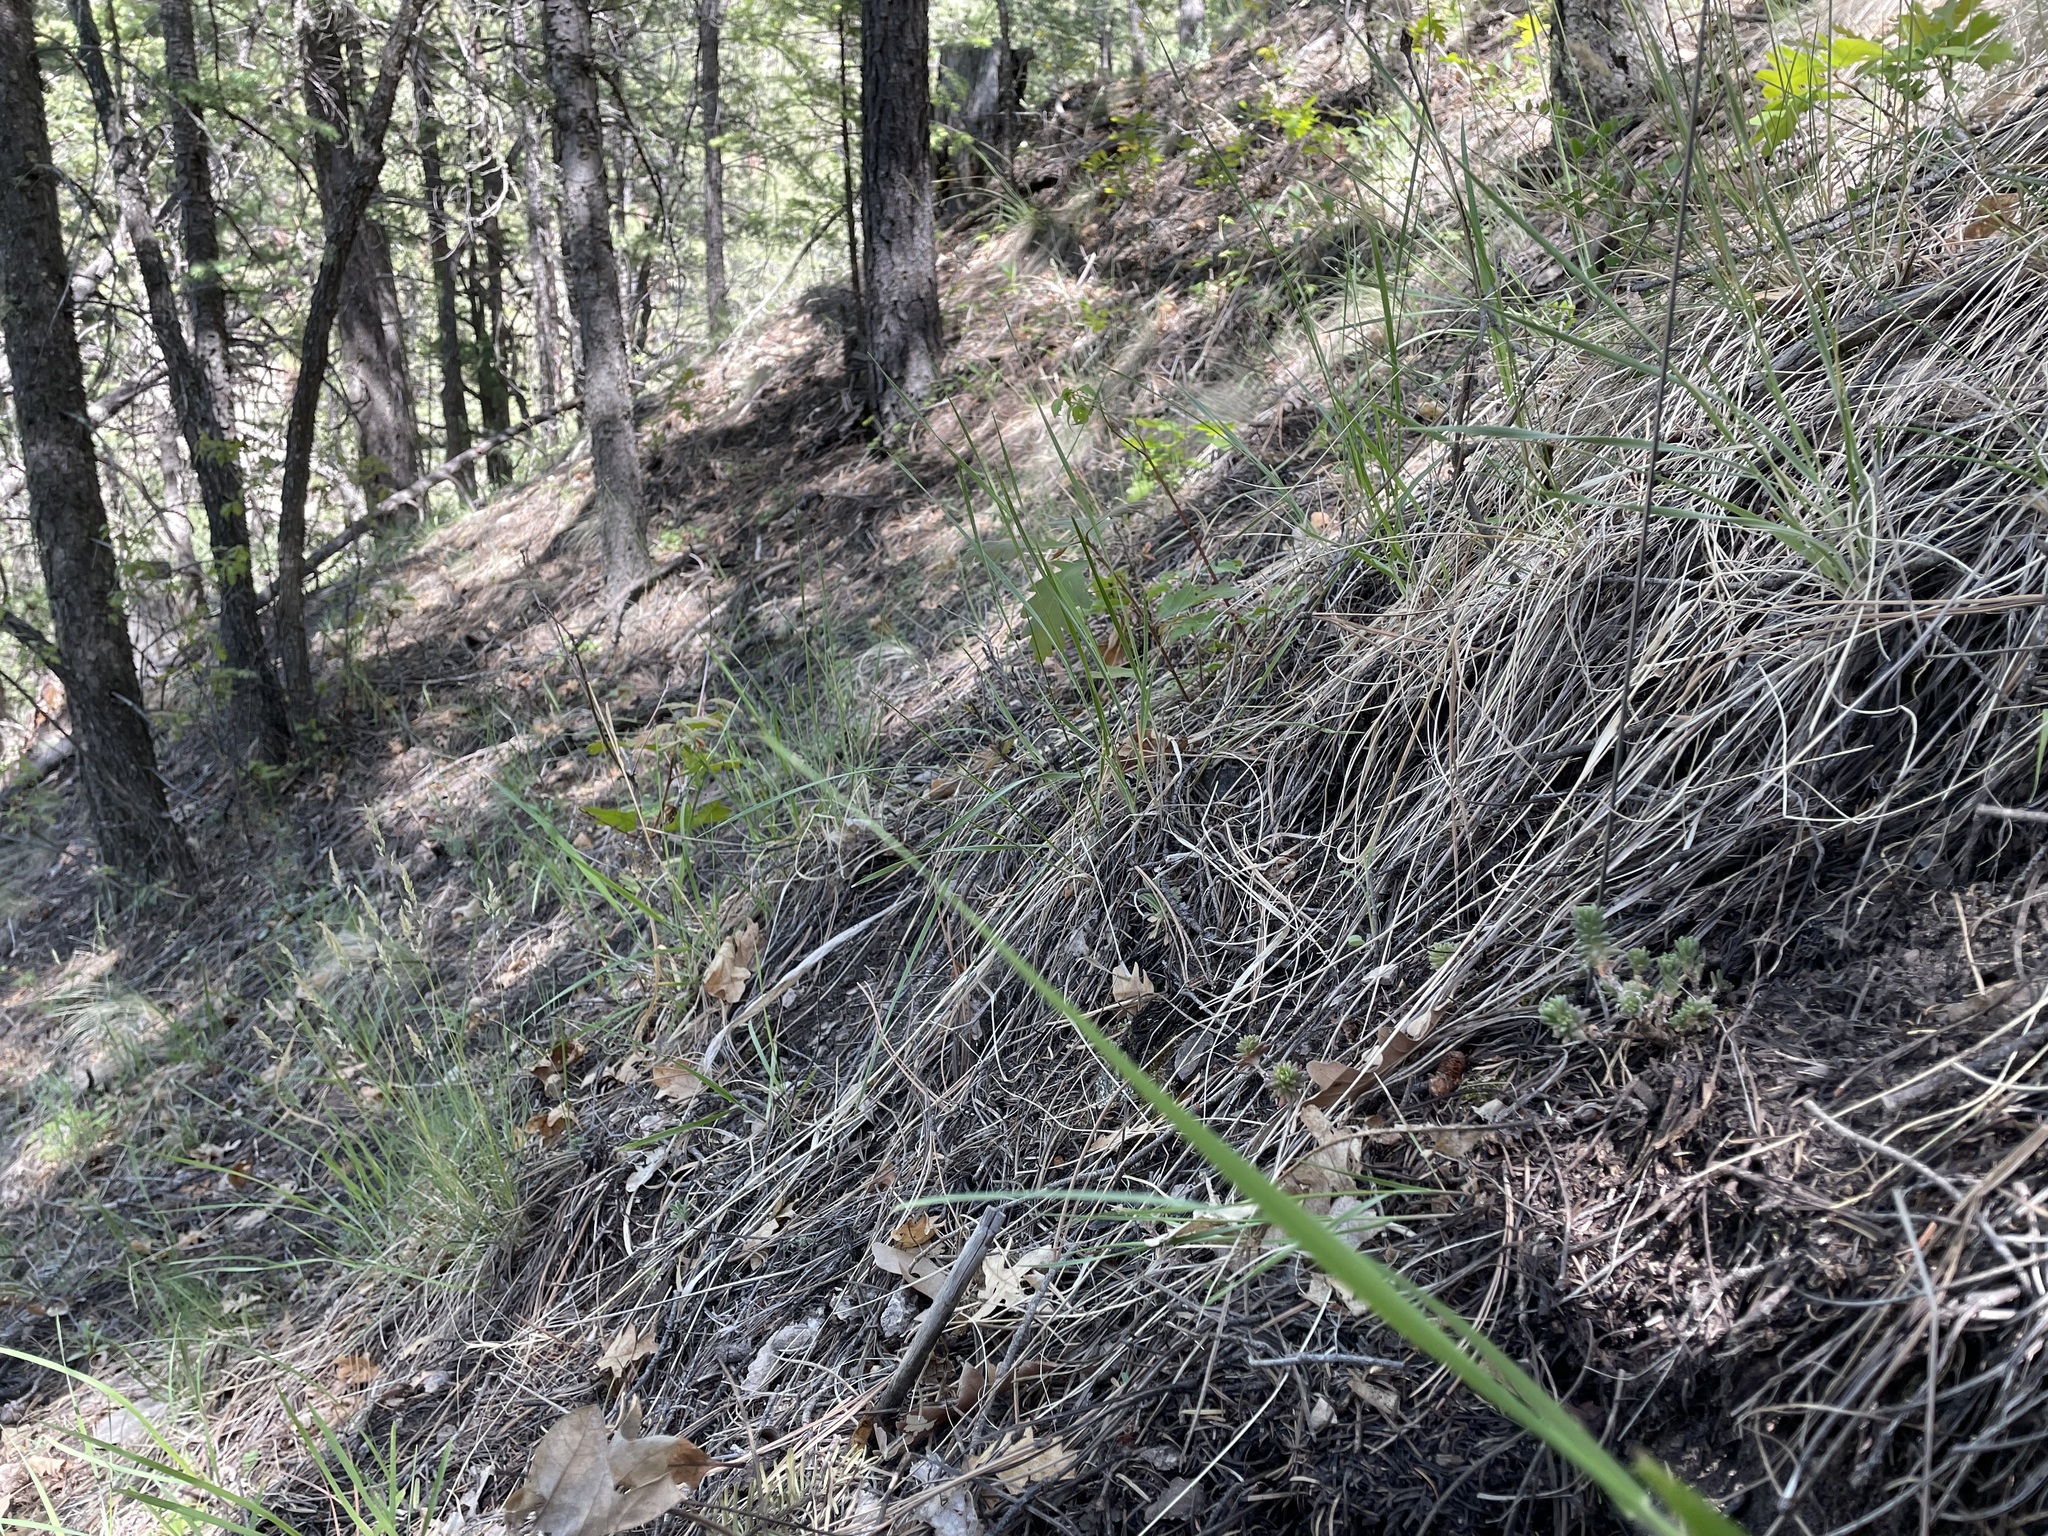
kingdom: Plantae
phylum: Tracheophyta
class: Magnoliopsida
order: Saxifragales
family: Crassulaceae
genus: Sedum
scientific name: Sedum stelliforme
